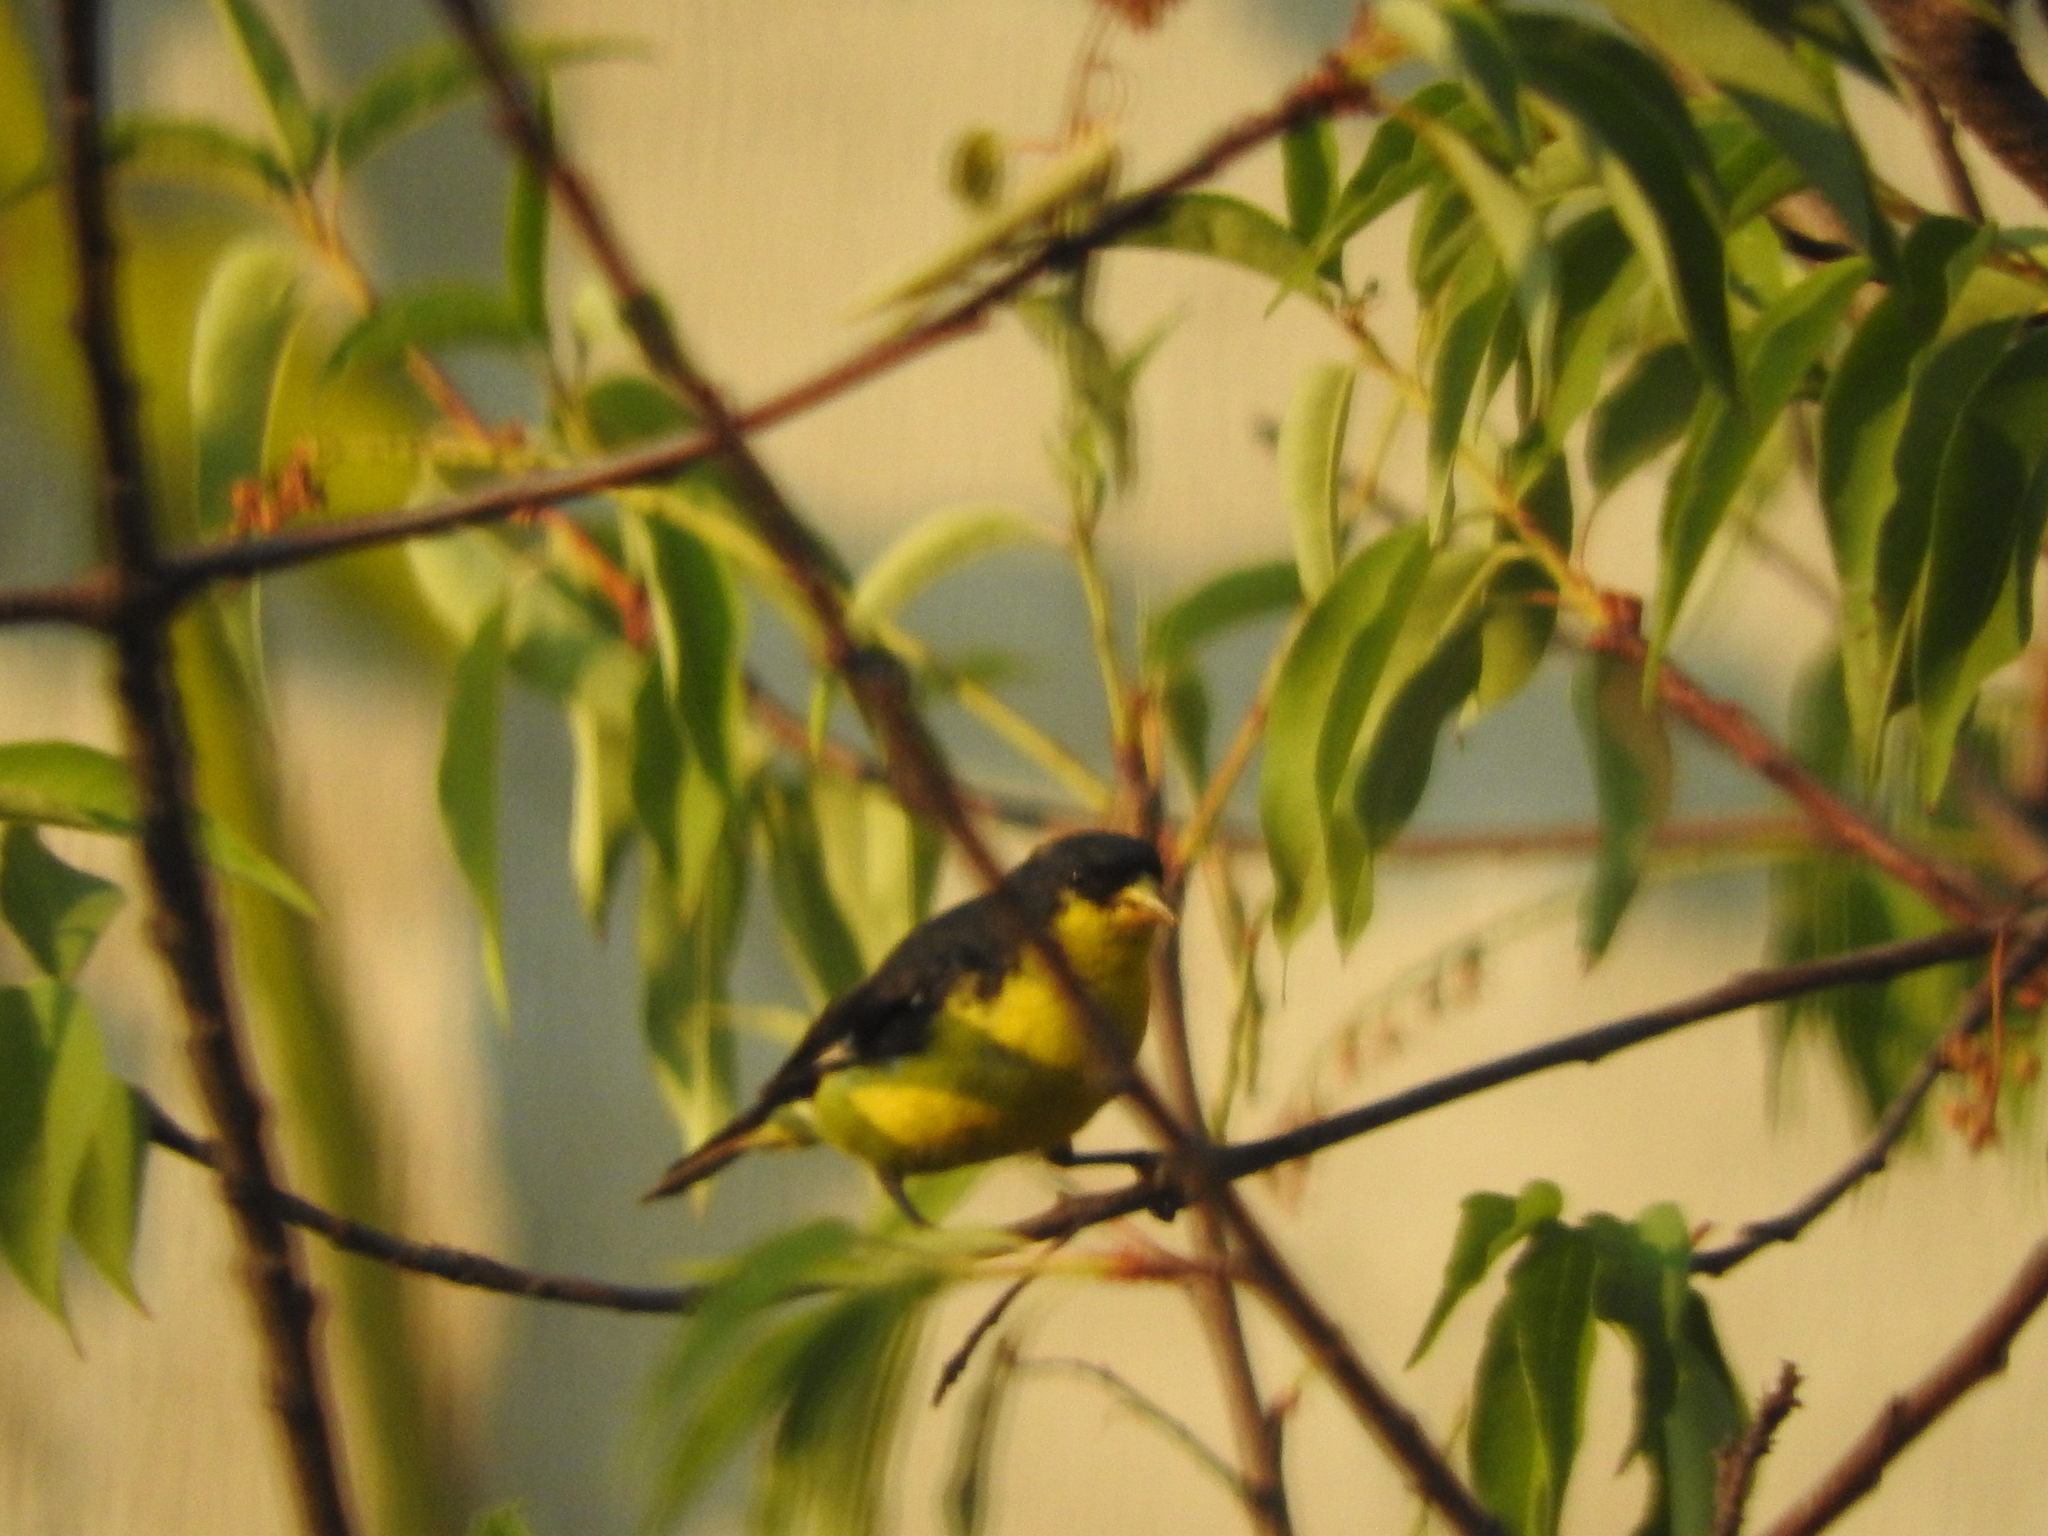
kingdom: Animalia
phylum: Chordata
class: Aves
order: Passeriformes
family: Fringillidae
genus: Spinus
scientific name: Spinus psaltria
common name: Lesser goldfinch
